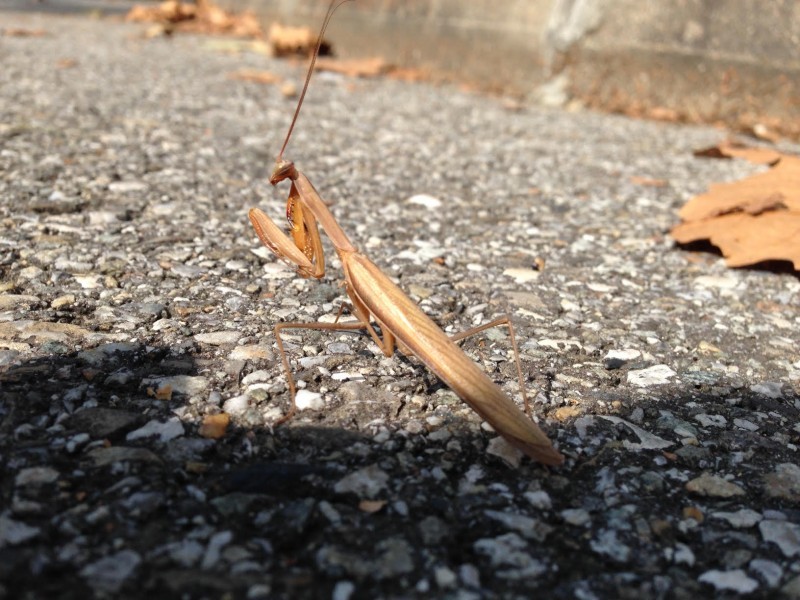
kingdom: Animalia
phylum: Arthropoda
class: Insecta
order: Mantodea
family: Mantidae
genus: Mantis
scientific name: Mantis religiosa
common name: Praying mantis
